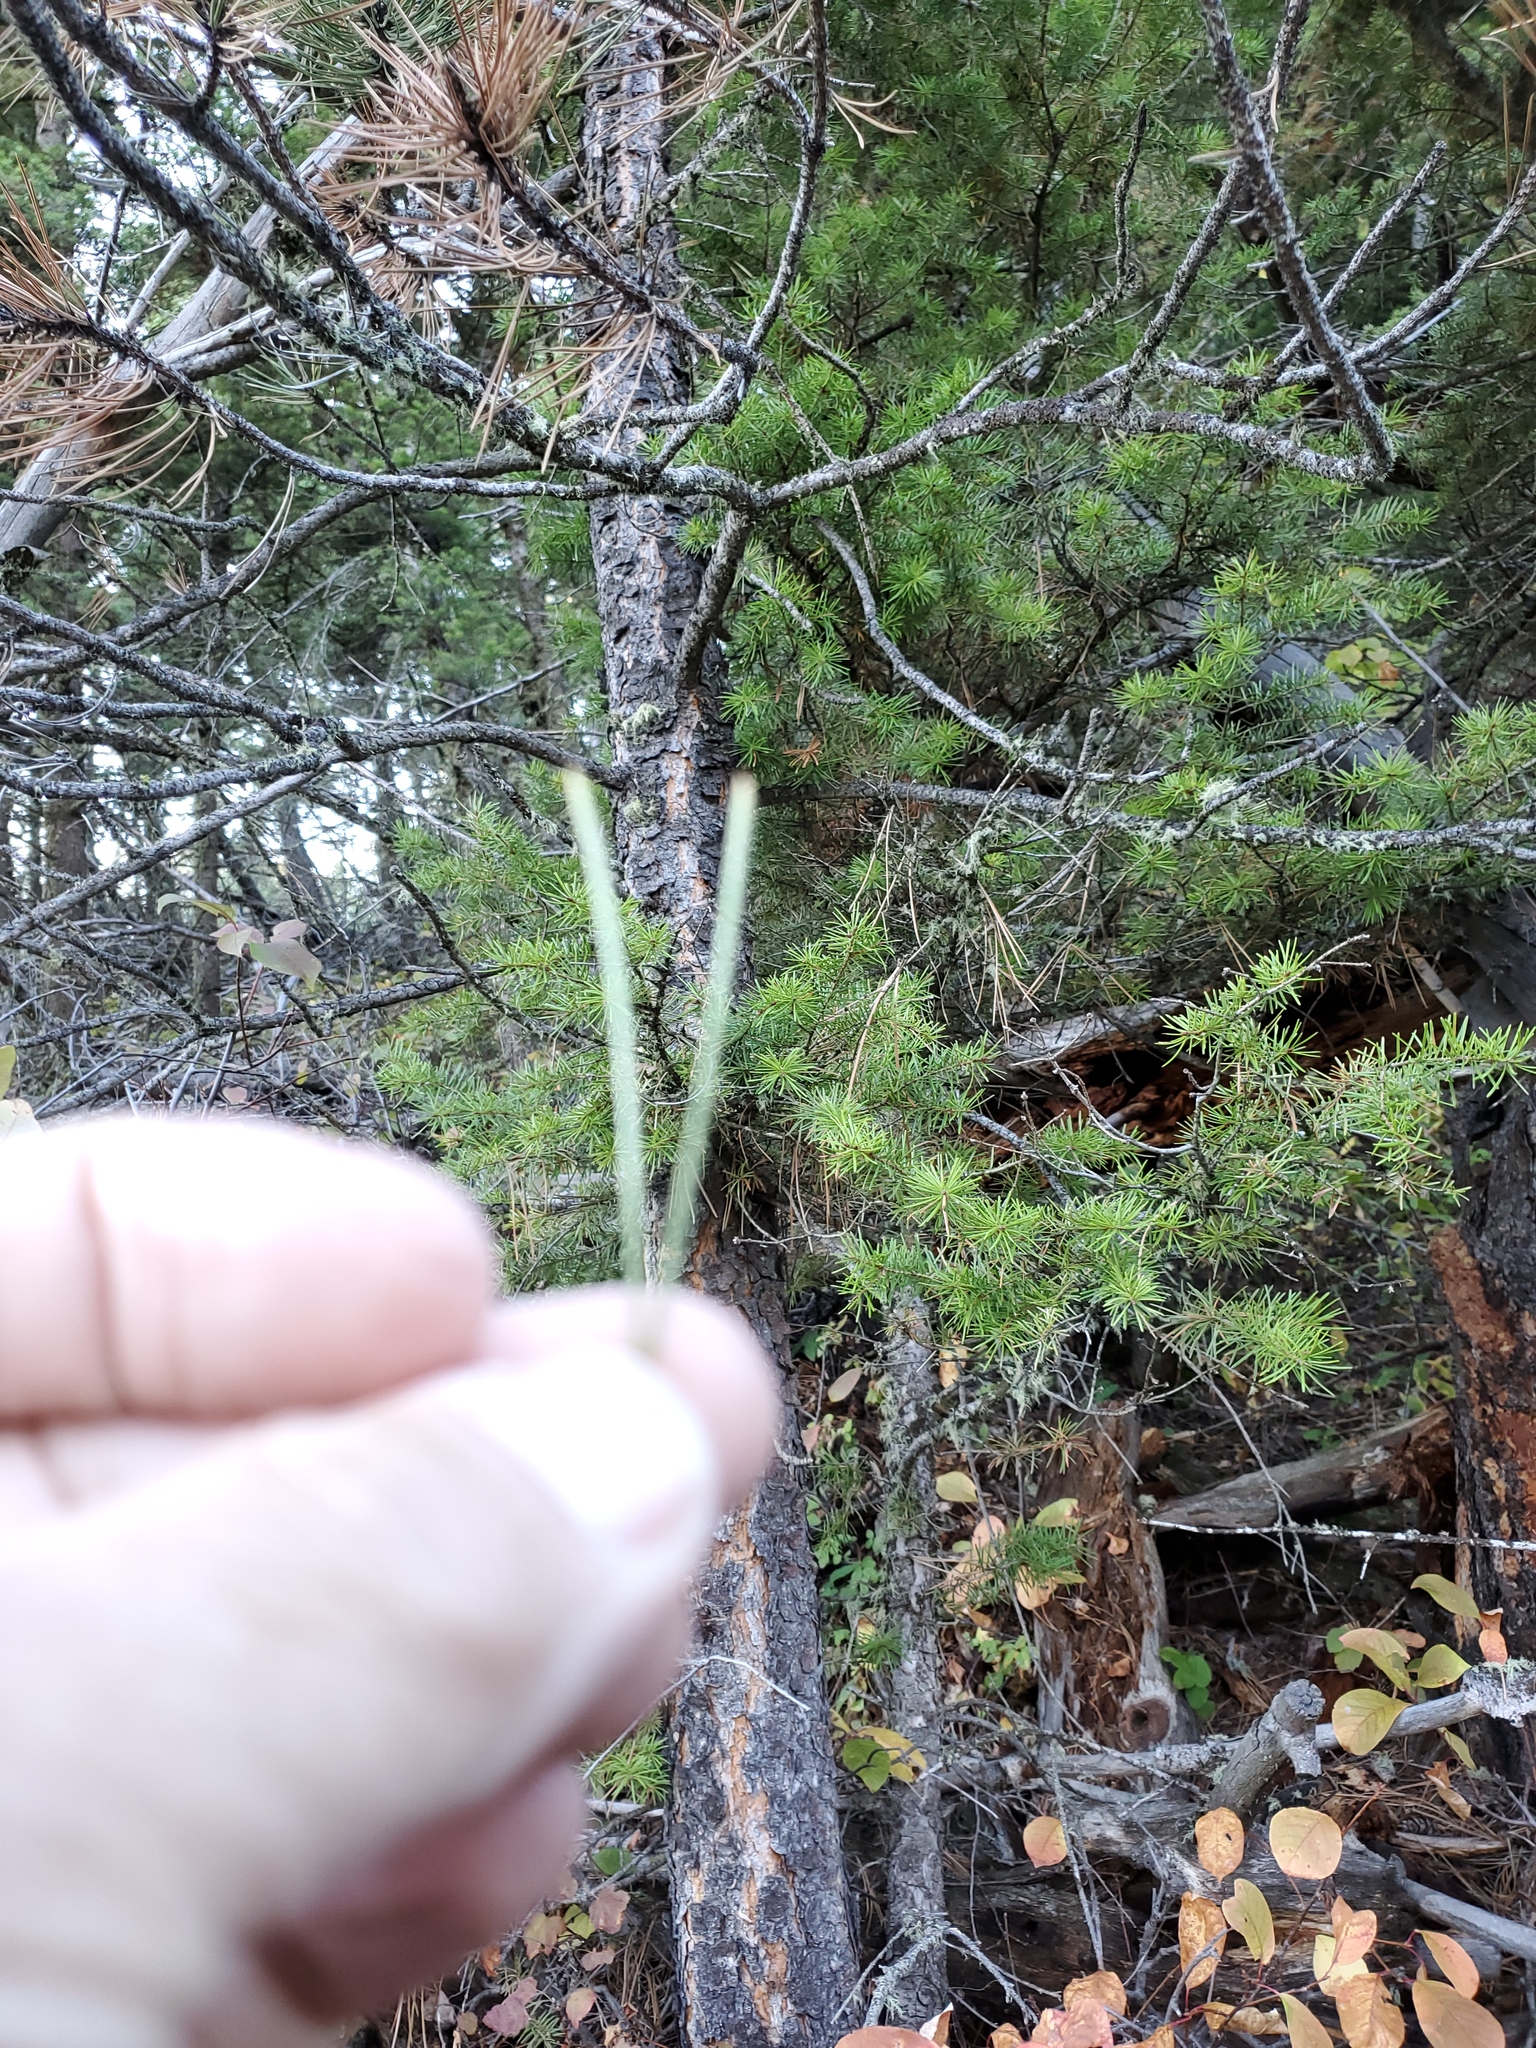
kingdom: Plantae
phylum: Tracheophyta
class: Pinopsida
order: Pinales
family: Pinaceae
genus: Pinus
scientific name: Pinus ponderosa
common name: Western yellow-pine
